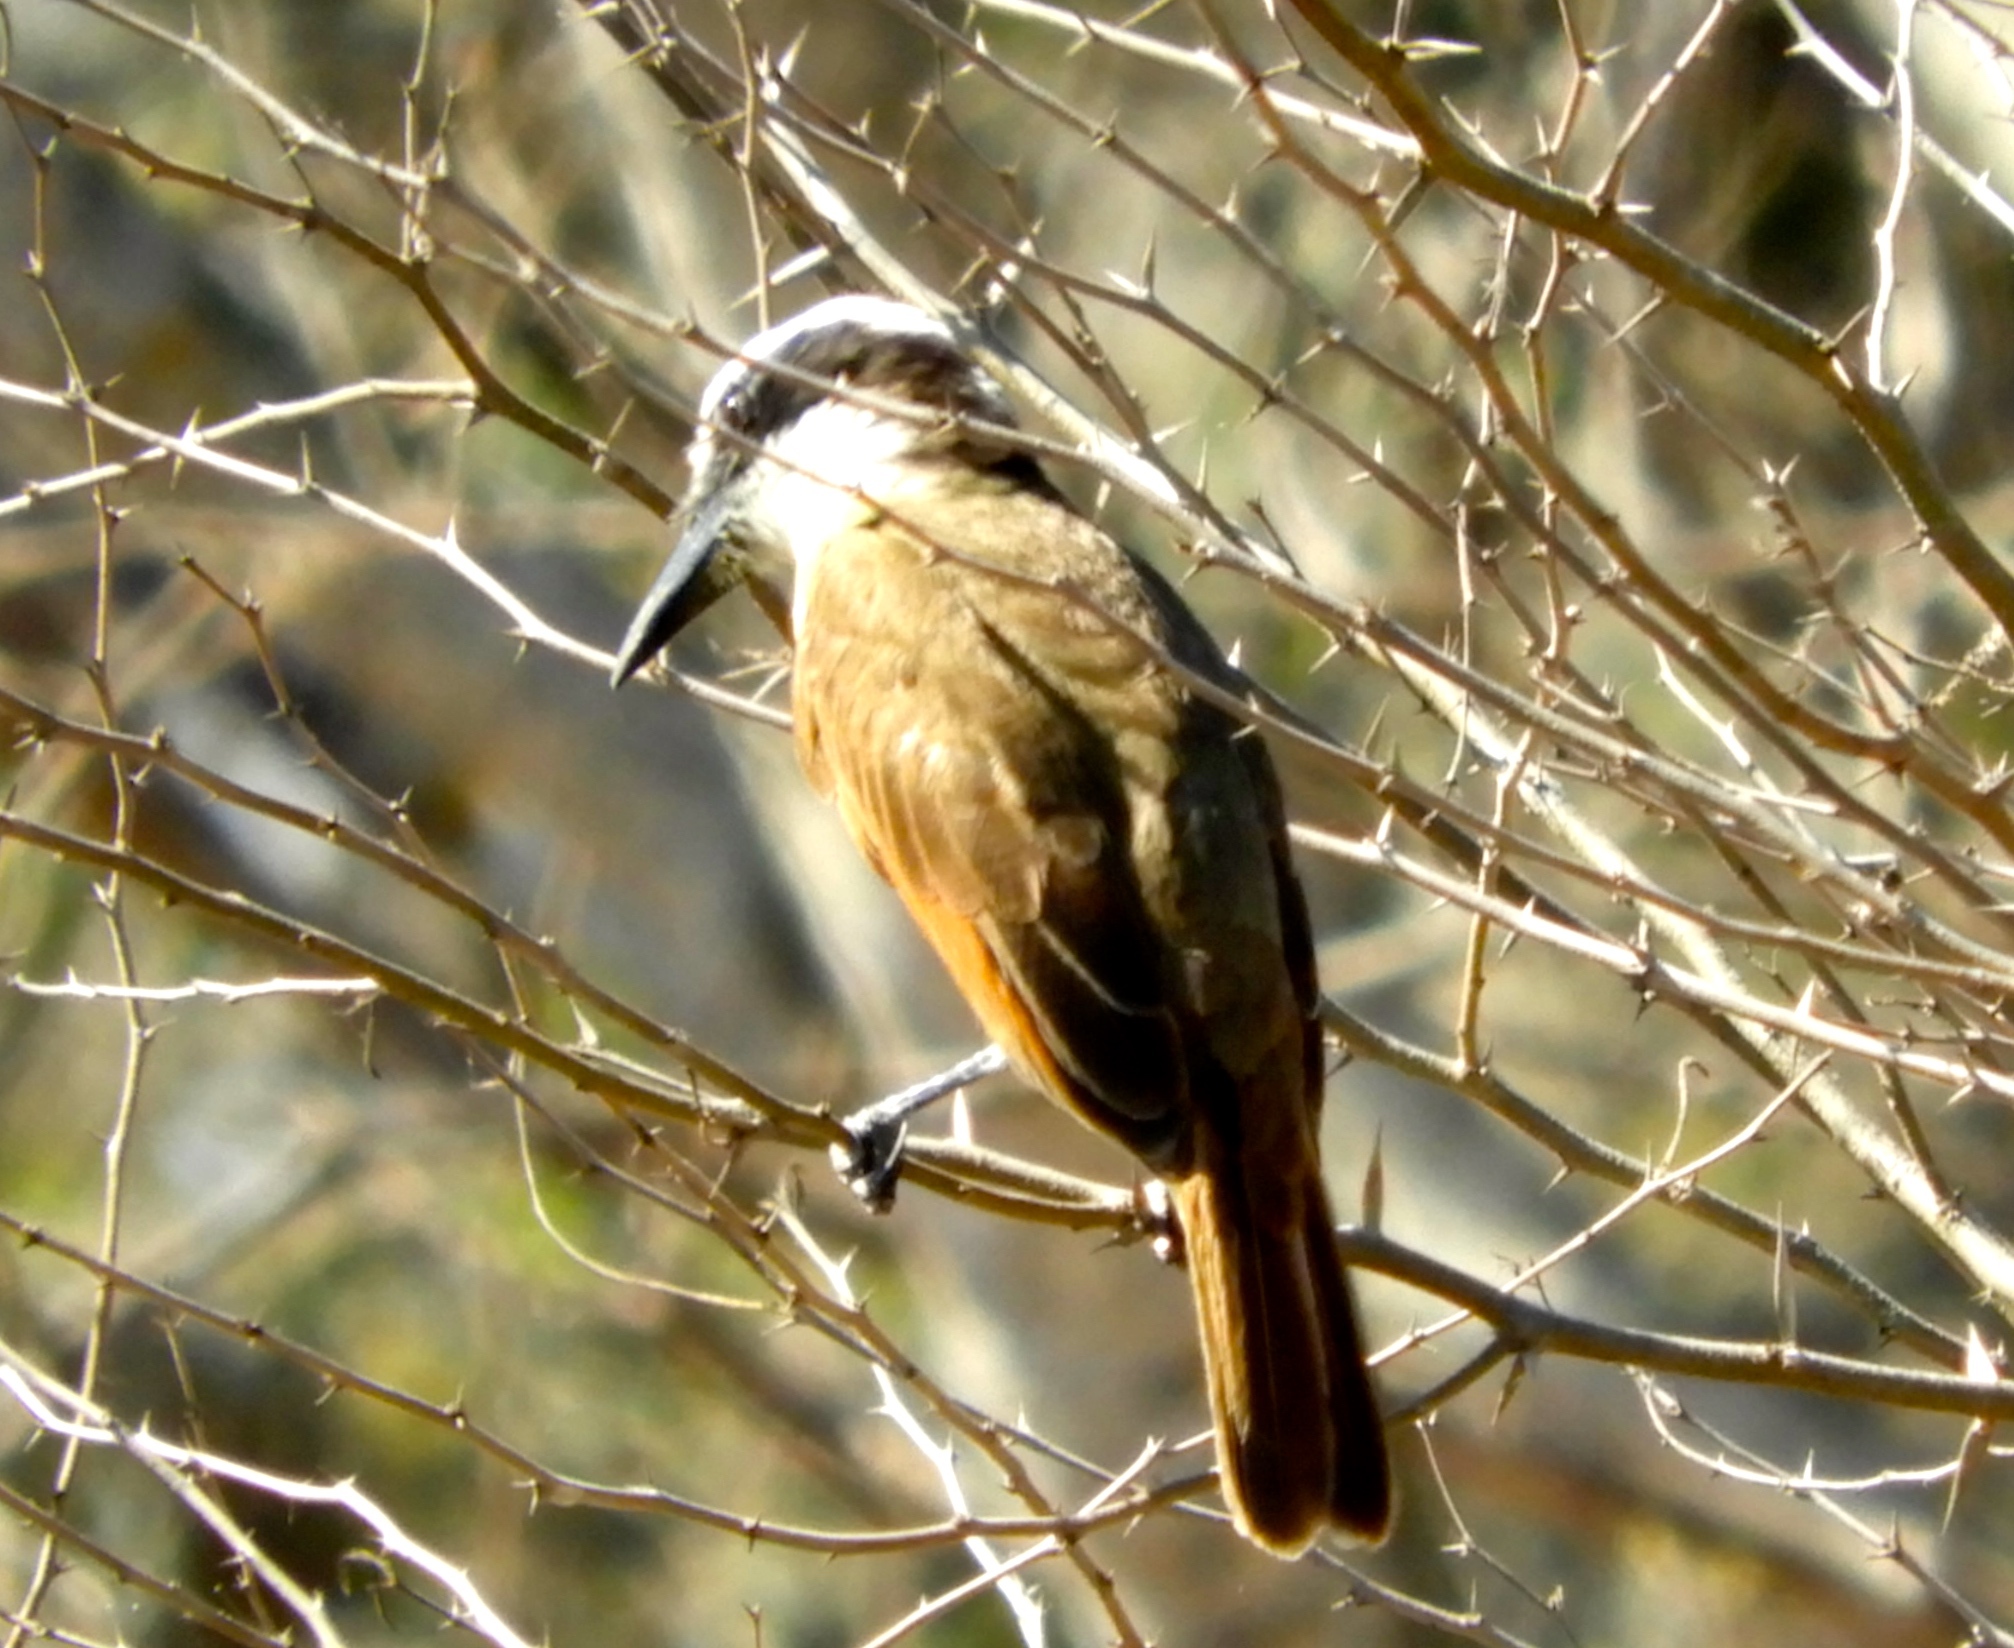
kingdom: Animalia
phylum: Chordata
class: Aves
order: Passeriformes
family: Tyrannidae
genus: Pitangus
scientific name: Pitangus sulphuratus
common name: Great kiskadee
